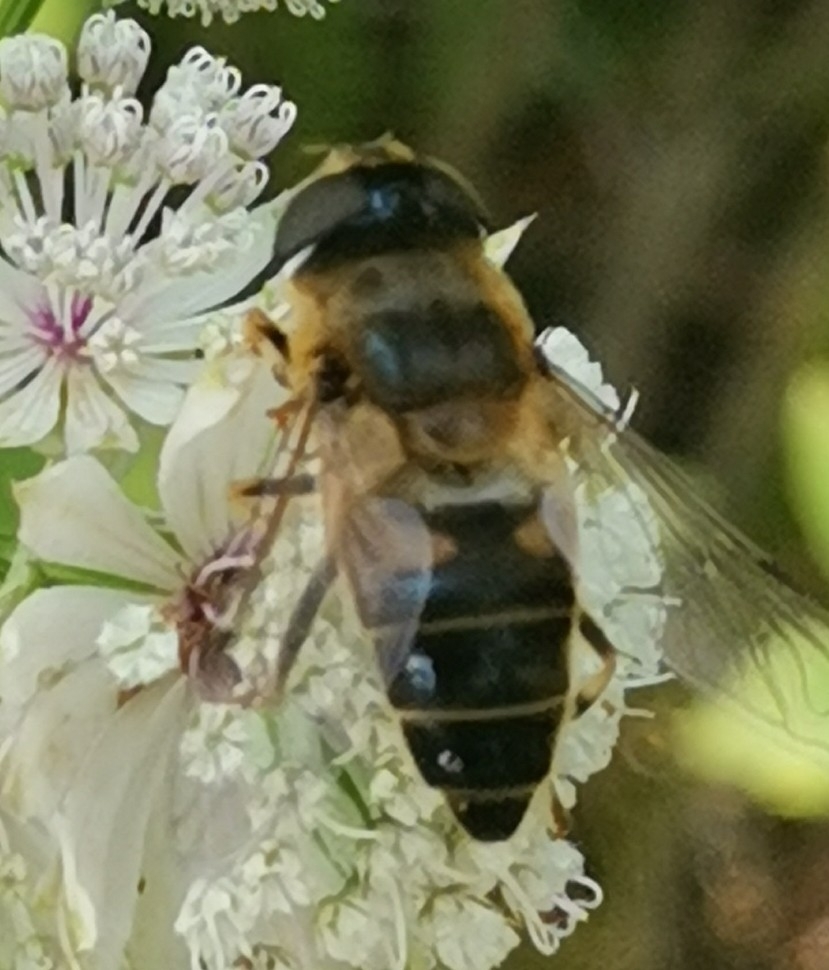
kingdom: Animalia
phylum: Arthropoda
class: Insecta
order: Diptera
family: Syrphidae
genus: Eristalis
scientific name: Eristalis pertinax
